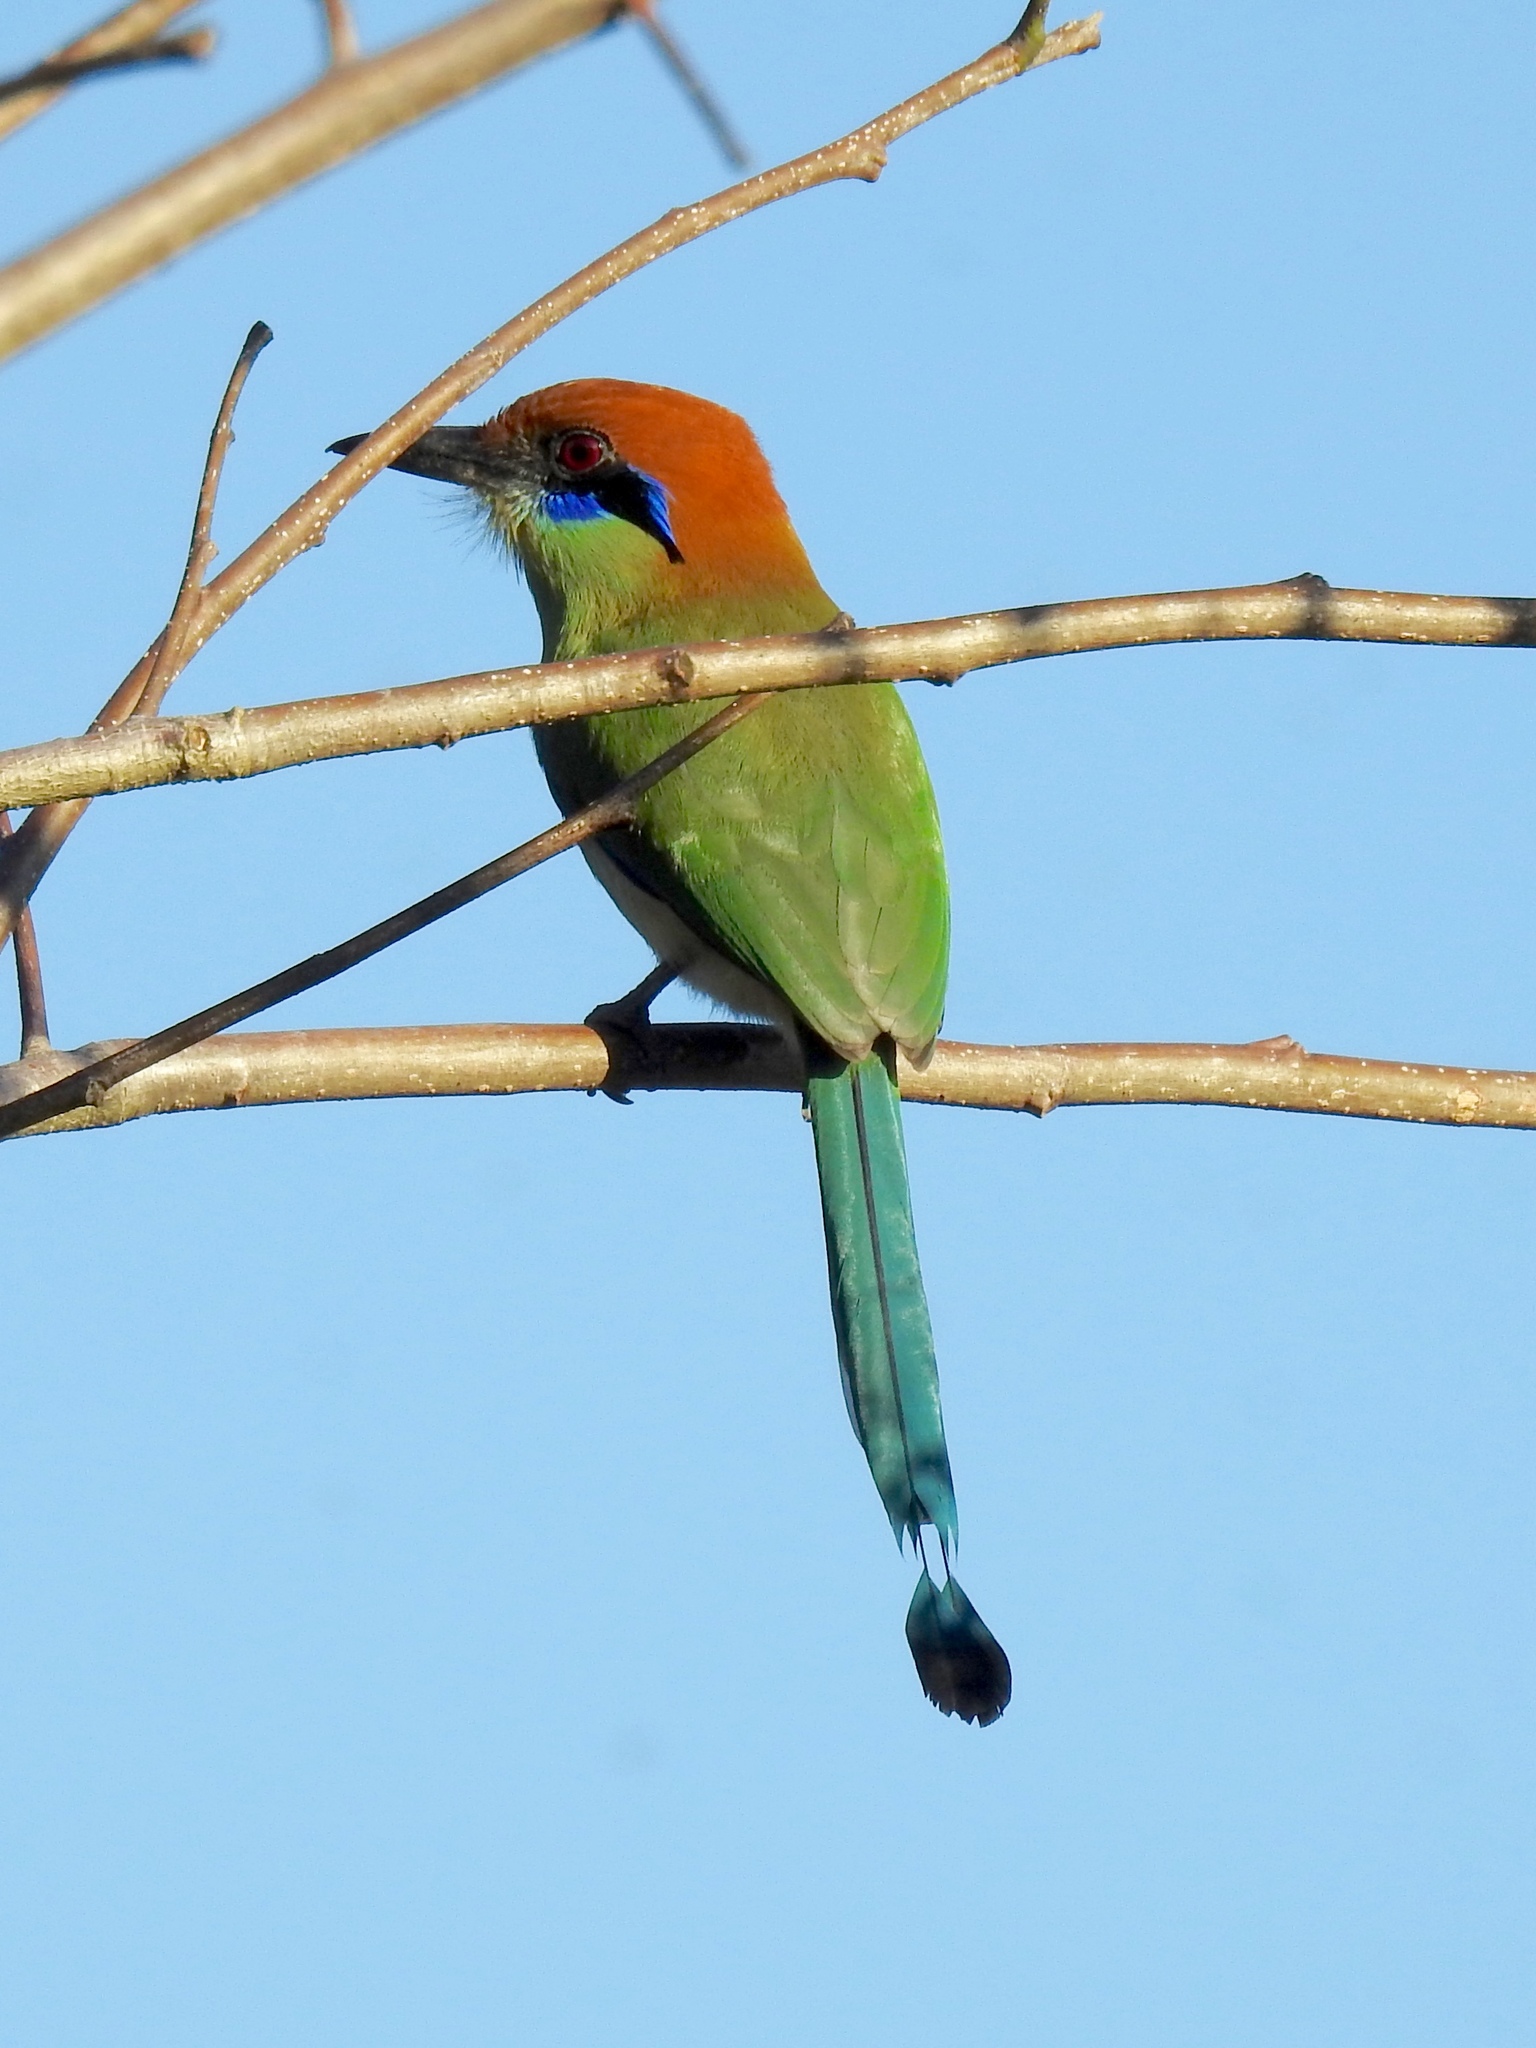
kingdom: Animalia
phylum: Chordata
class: Aves
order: Coraciiformes
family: Momotidae
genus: Momotus
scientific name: Momotus mexicanus
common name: Russet-crowned motmot
